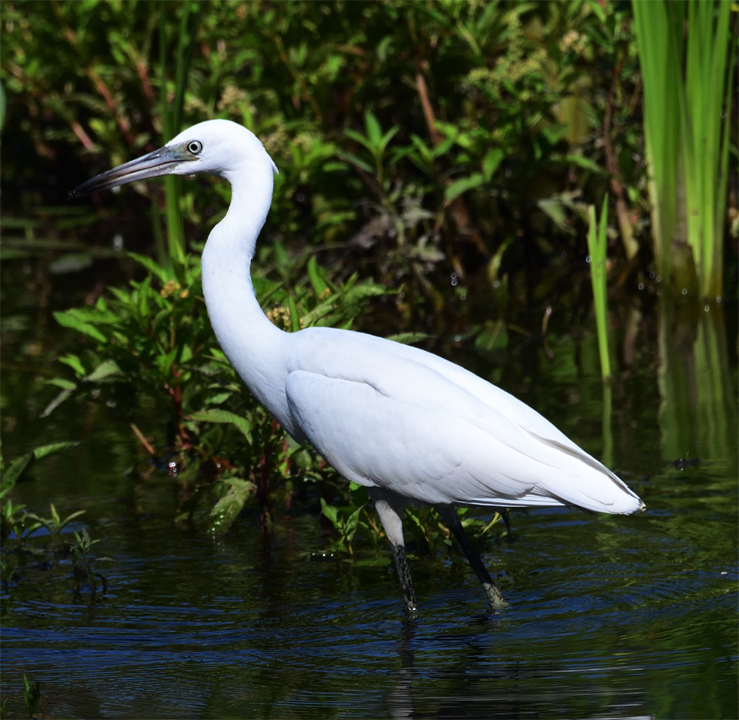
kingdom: Animalia
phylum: Chordata
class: Aves
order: Pelecaniformes
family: Ardeidae
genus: Egretta
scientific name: Egretta caerulea
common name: Little blue heron
